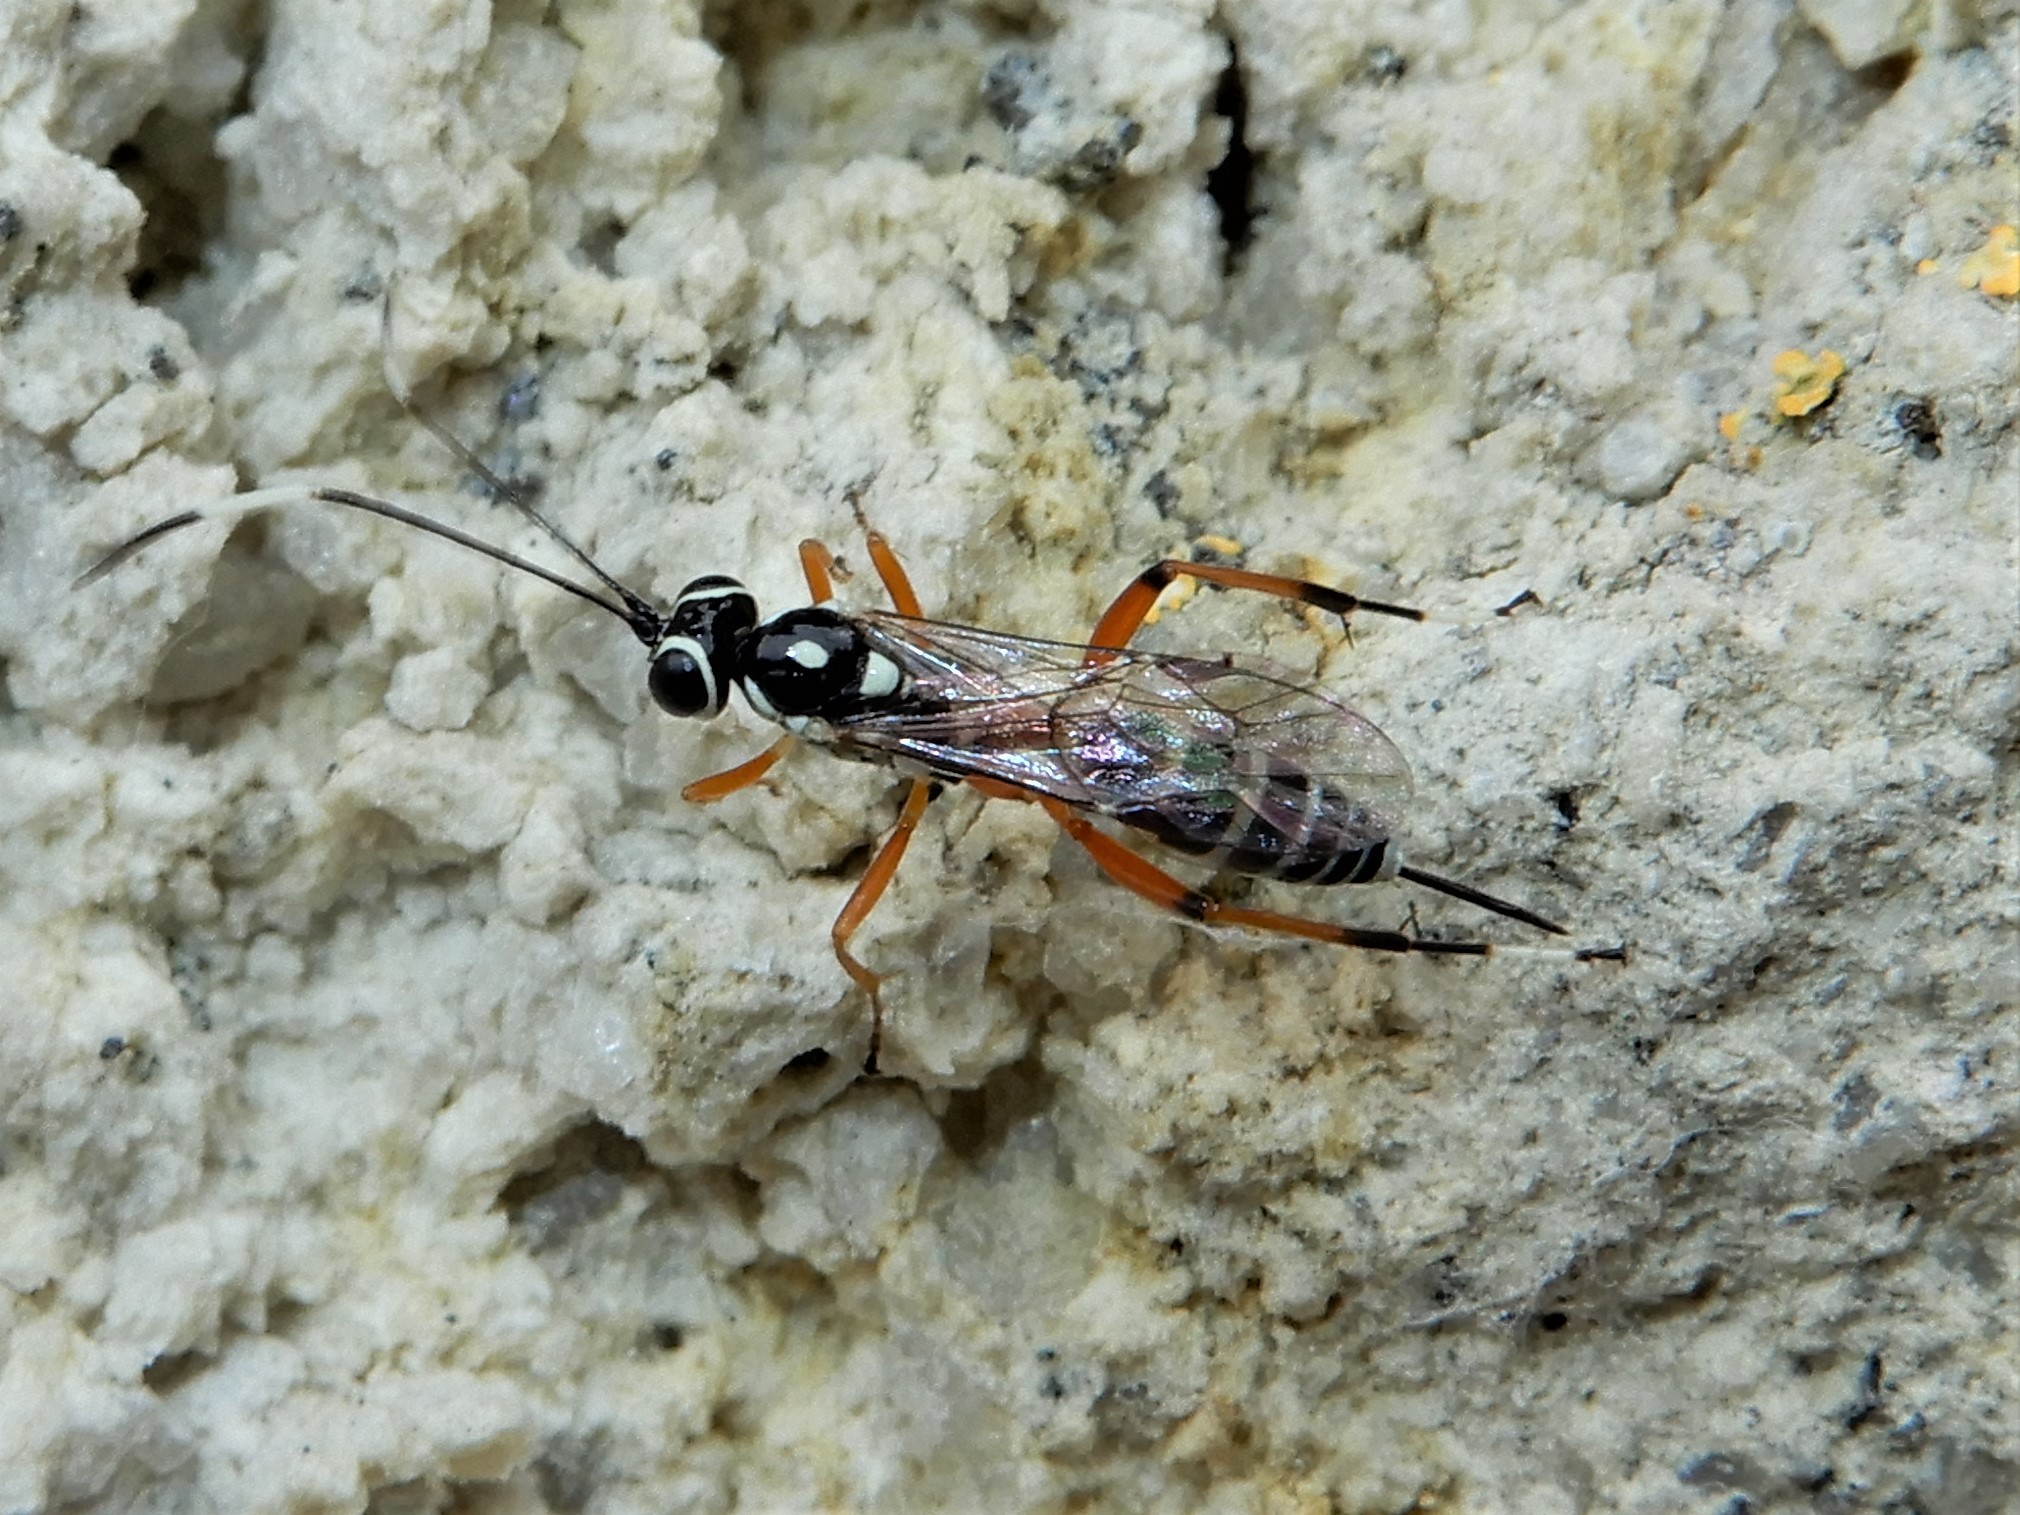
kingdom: Animalia
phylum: Arthropoda
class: Insecta
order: Hymenoptera
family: Ichneumonidae
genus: Glabridorsum
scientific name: Glabridorsum stokesii
